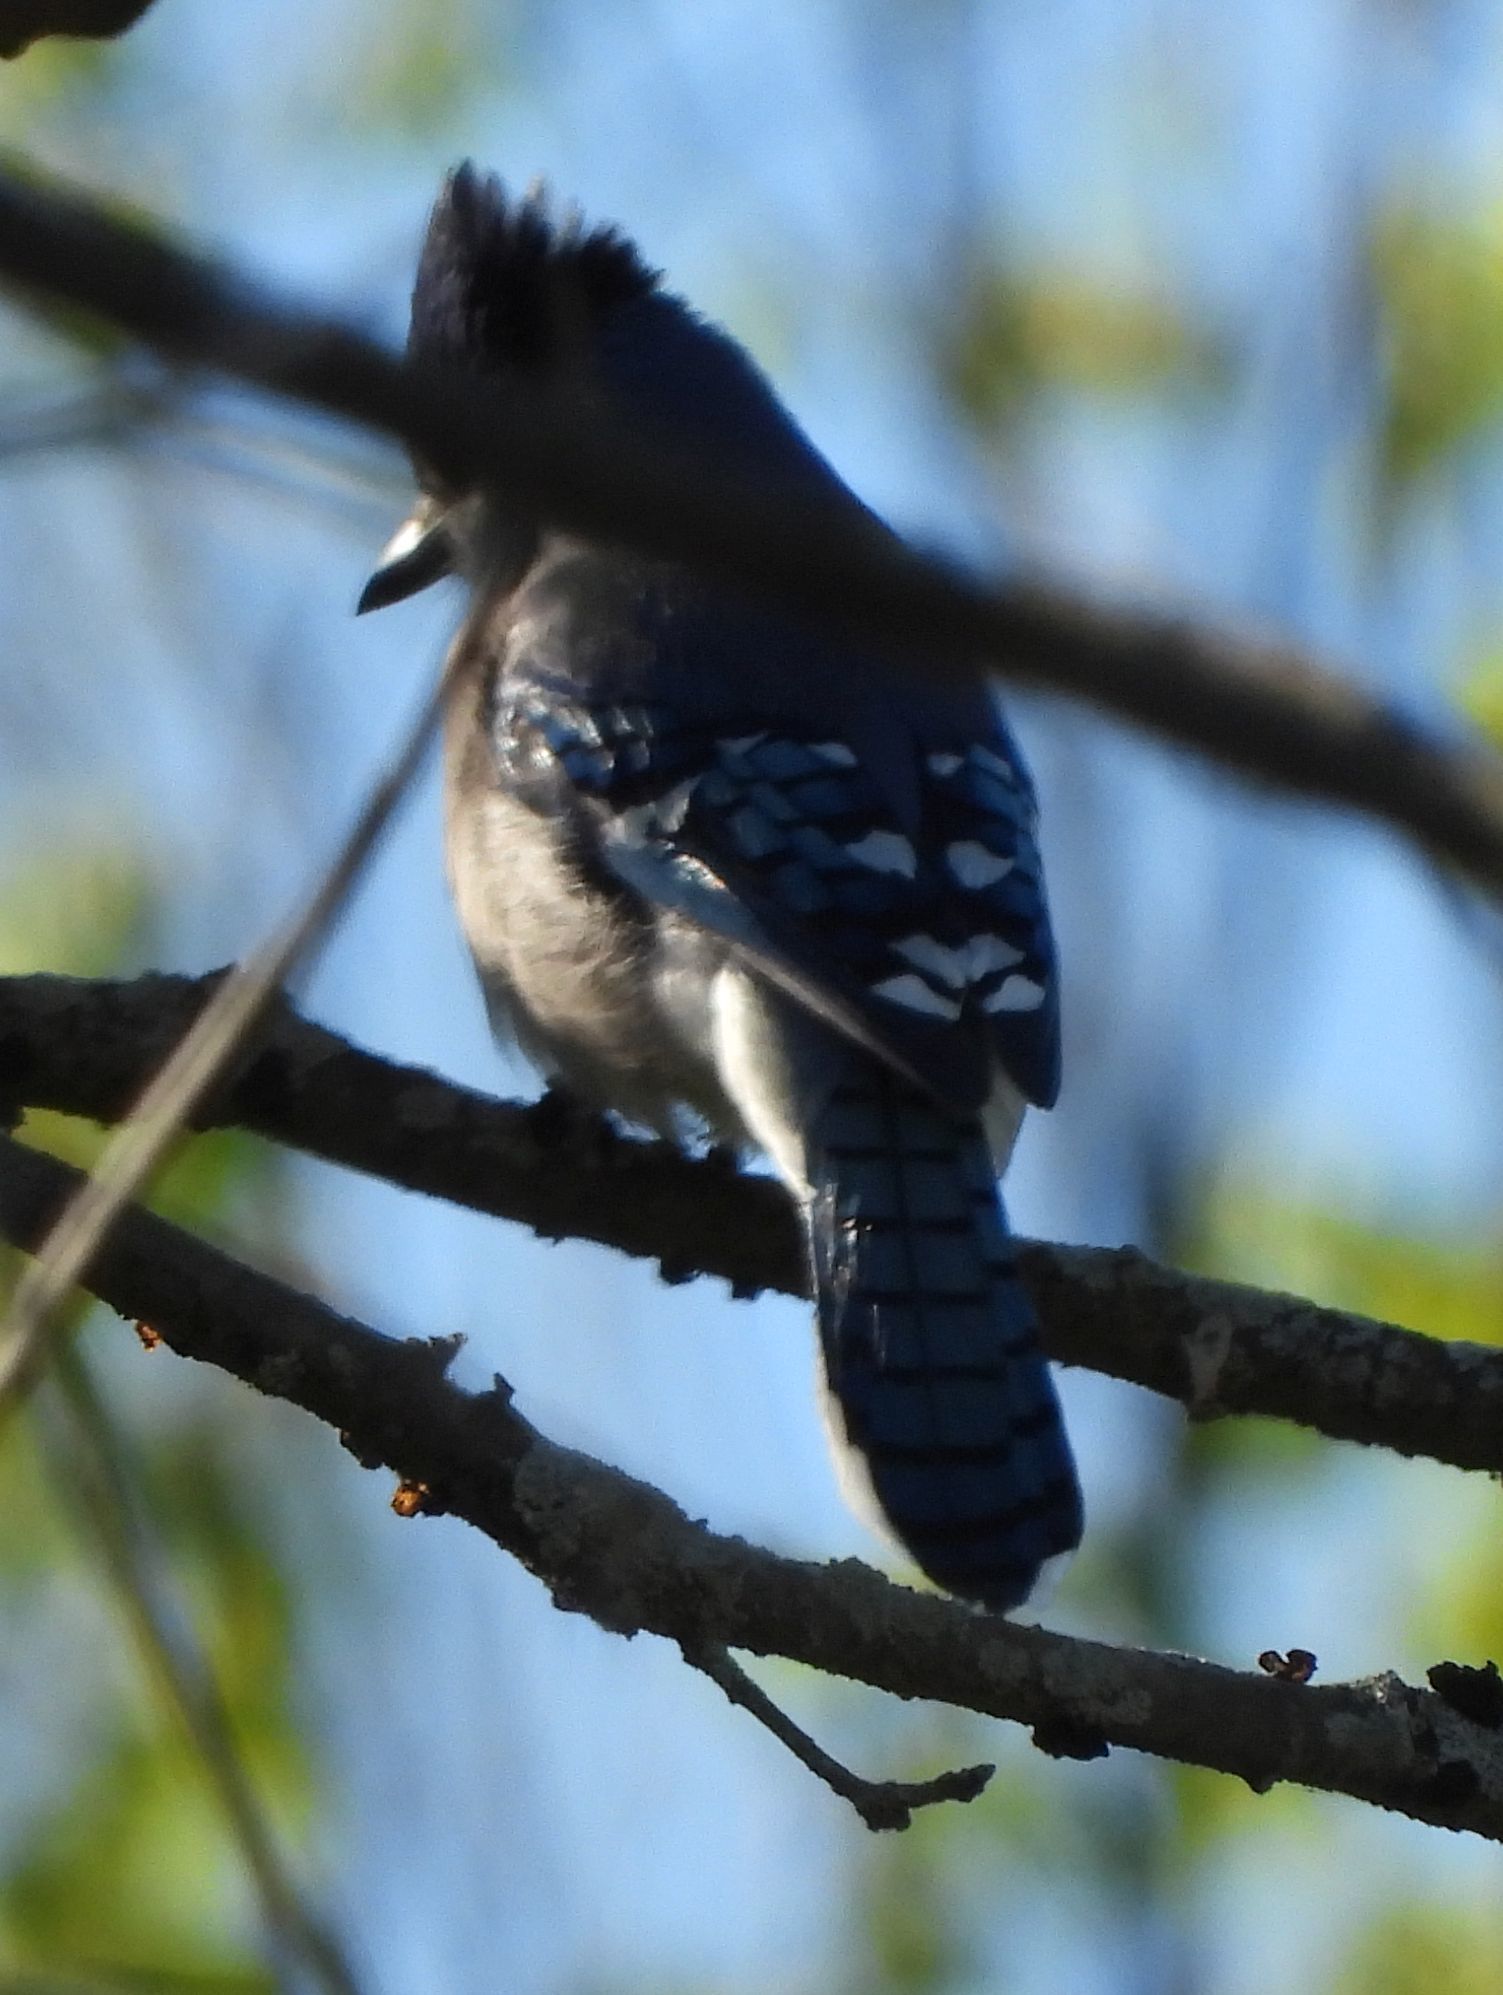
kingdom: Animalia
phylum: Chordata
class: Aves
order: Passeriformes
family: Corvidae
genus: Cyanocitta
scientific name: Cyanocitta cristata
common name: Blue jay
